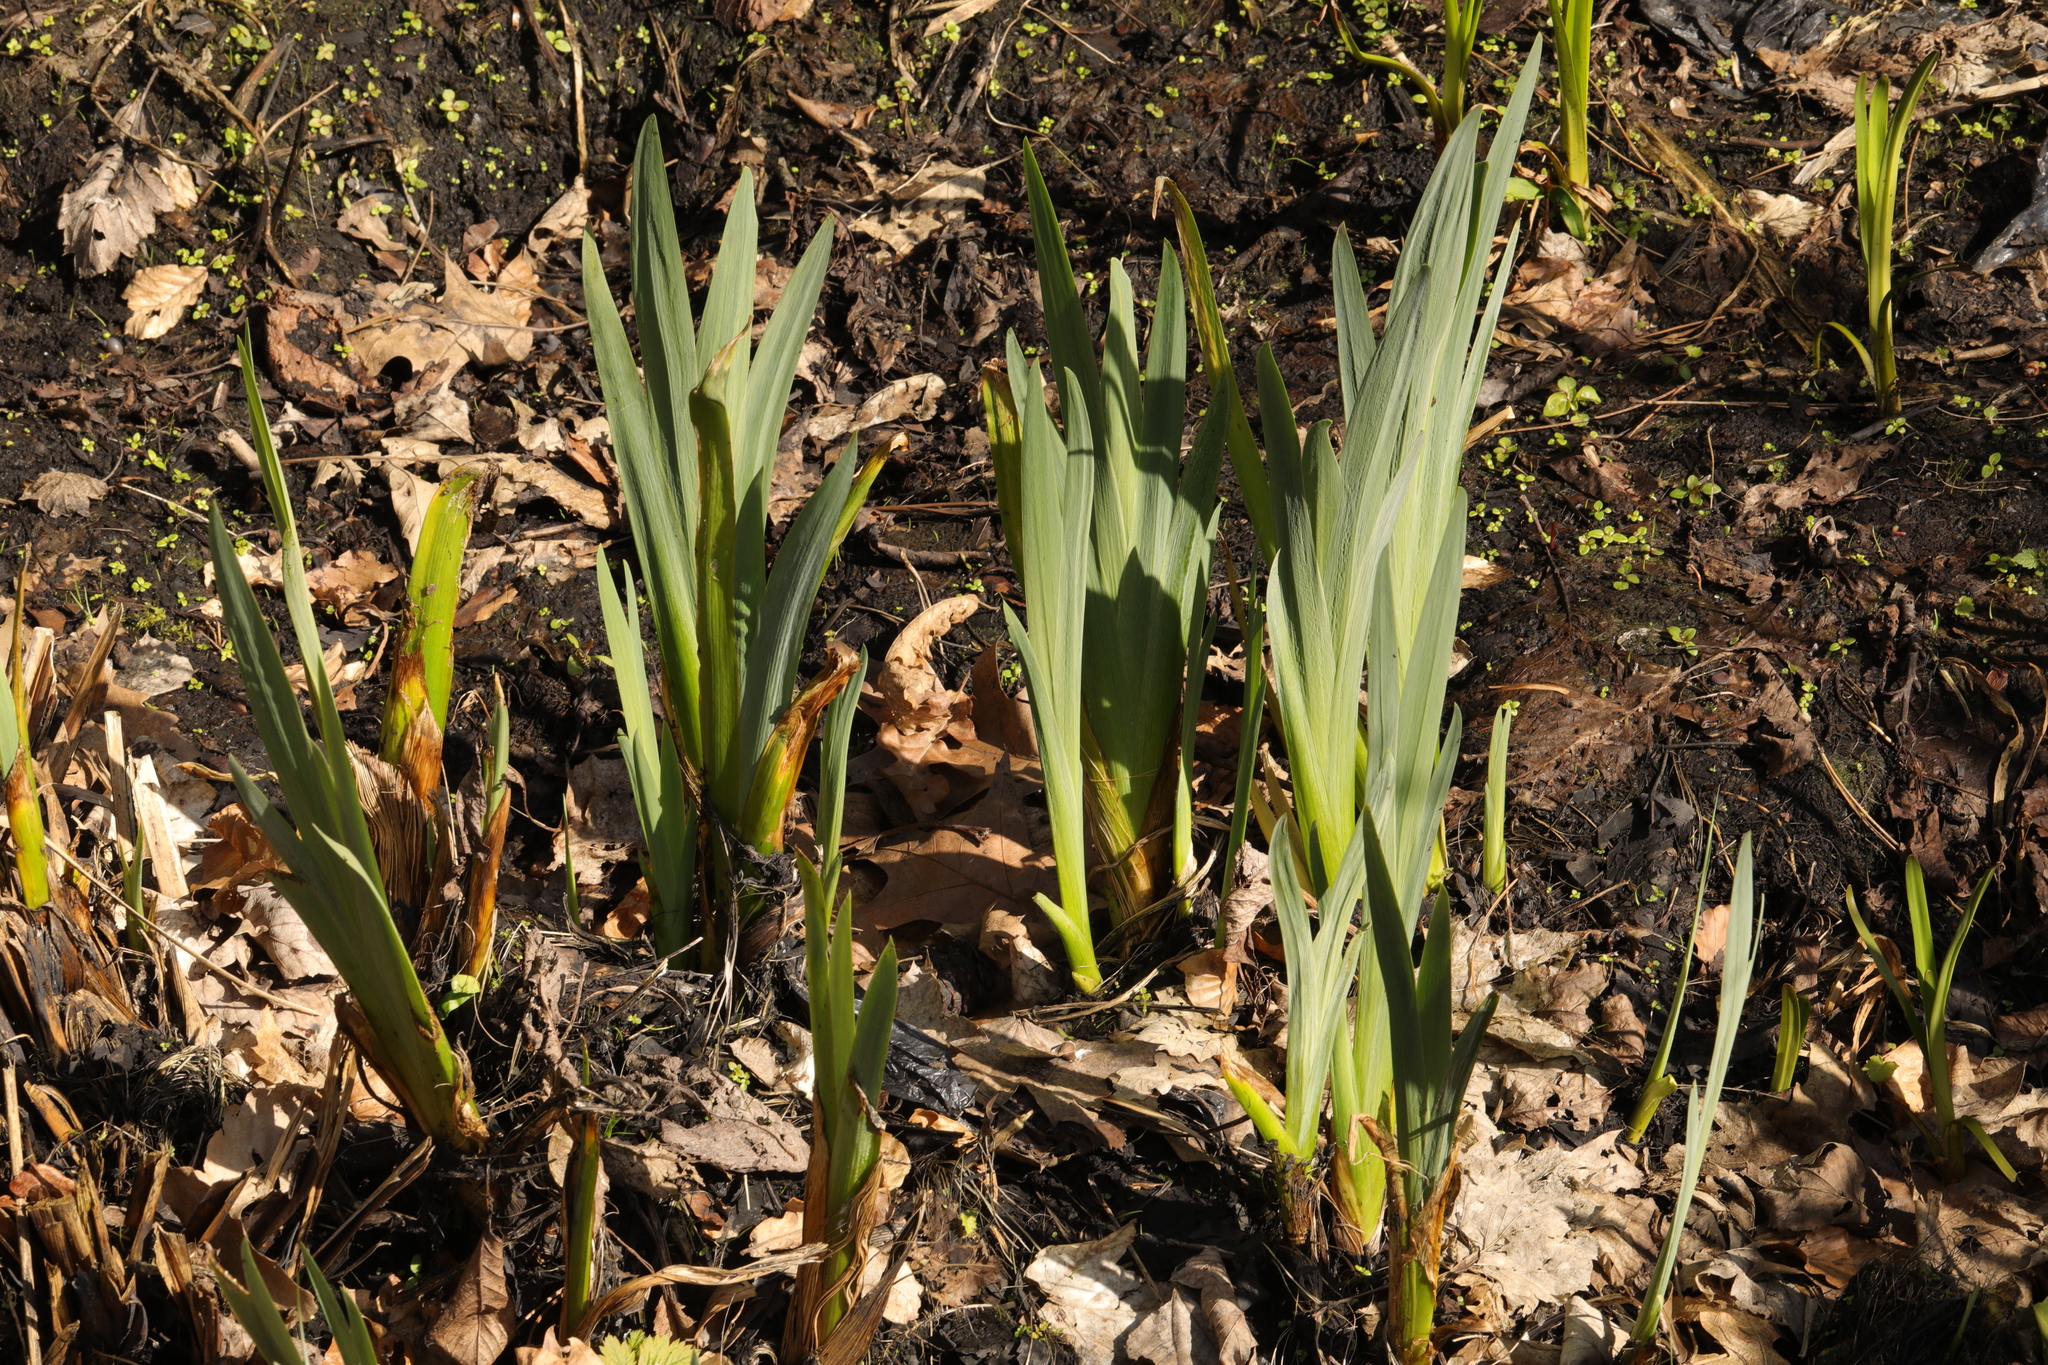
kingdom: Plantae
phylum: Tracheophyta
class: Liliopsida
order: Asparagales
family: Iridaceae
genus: Iris
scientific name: Iris pseudacorus
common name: Yellow flag
